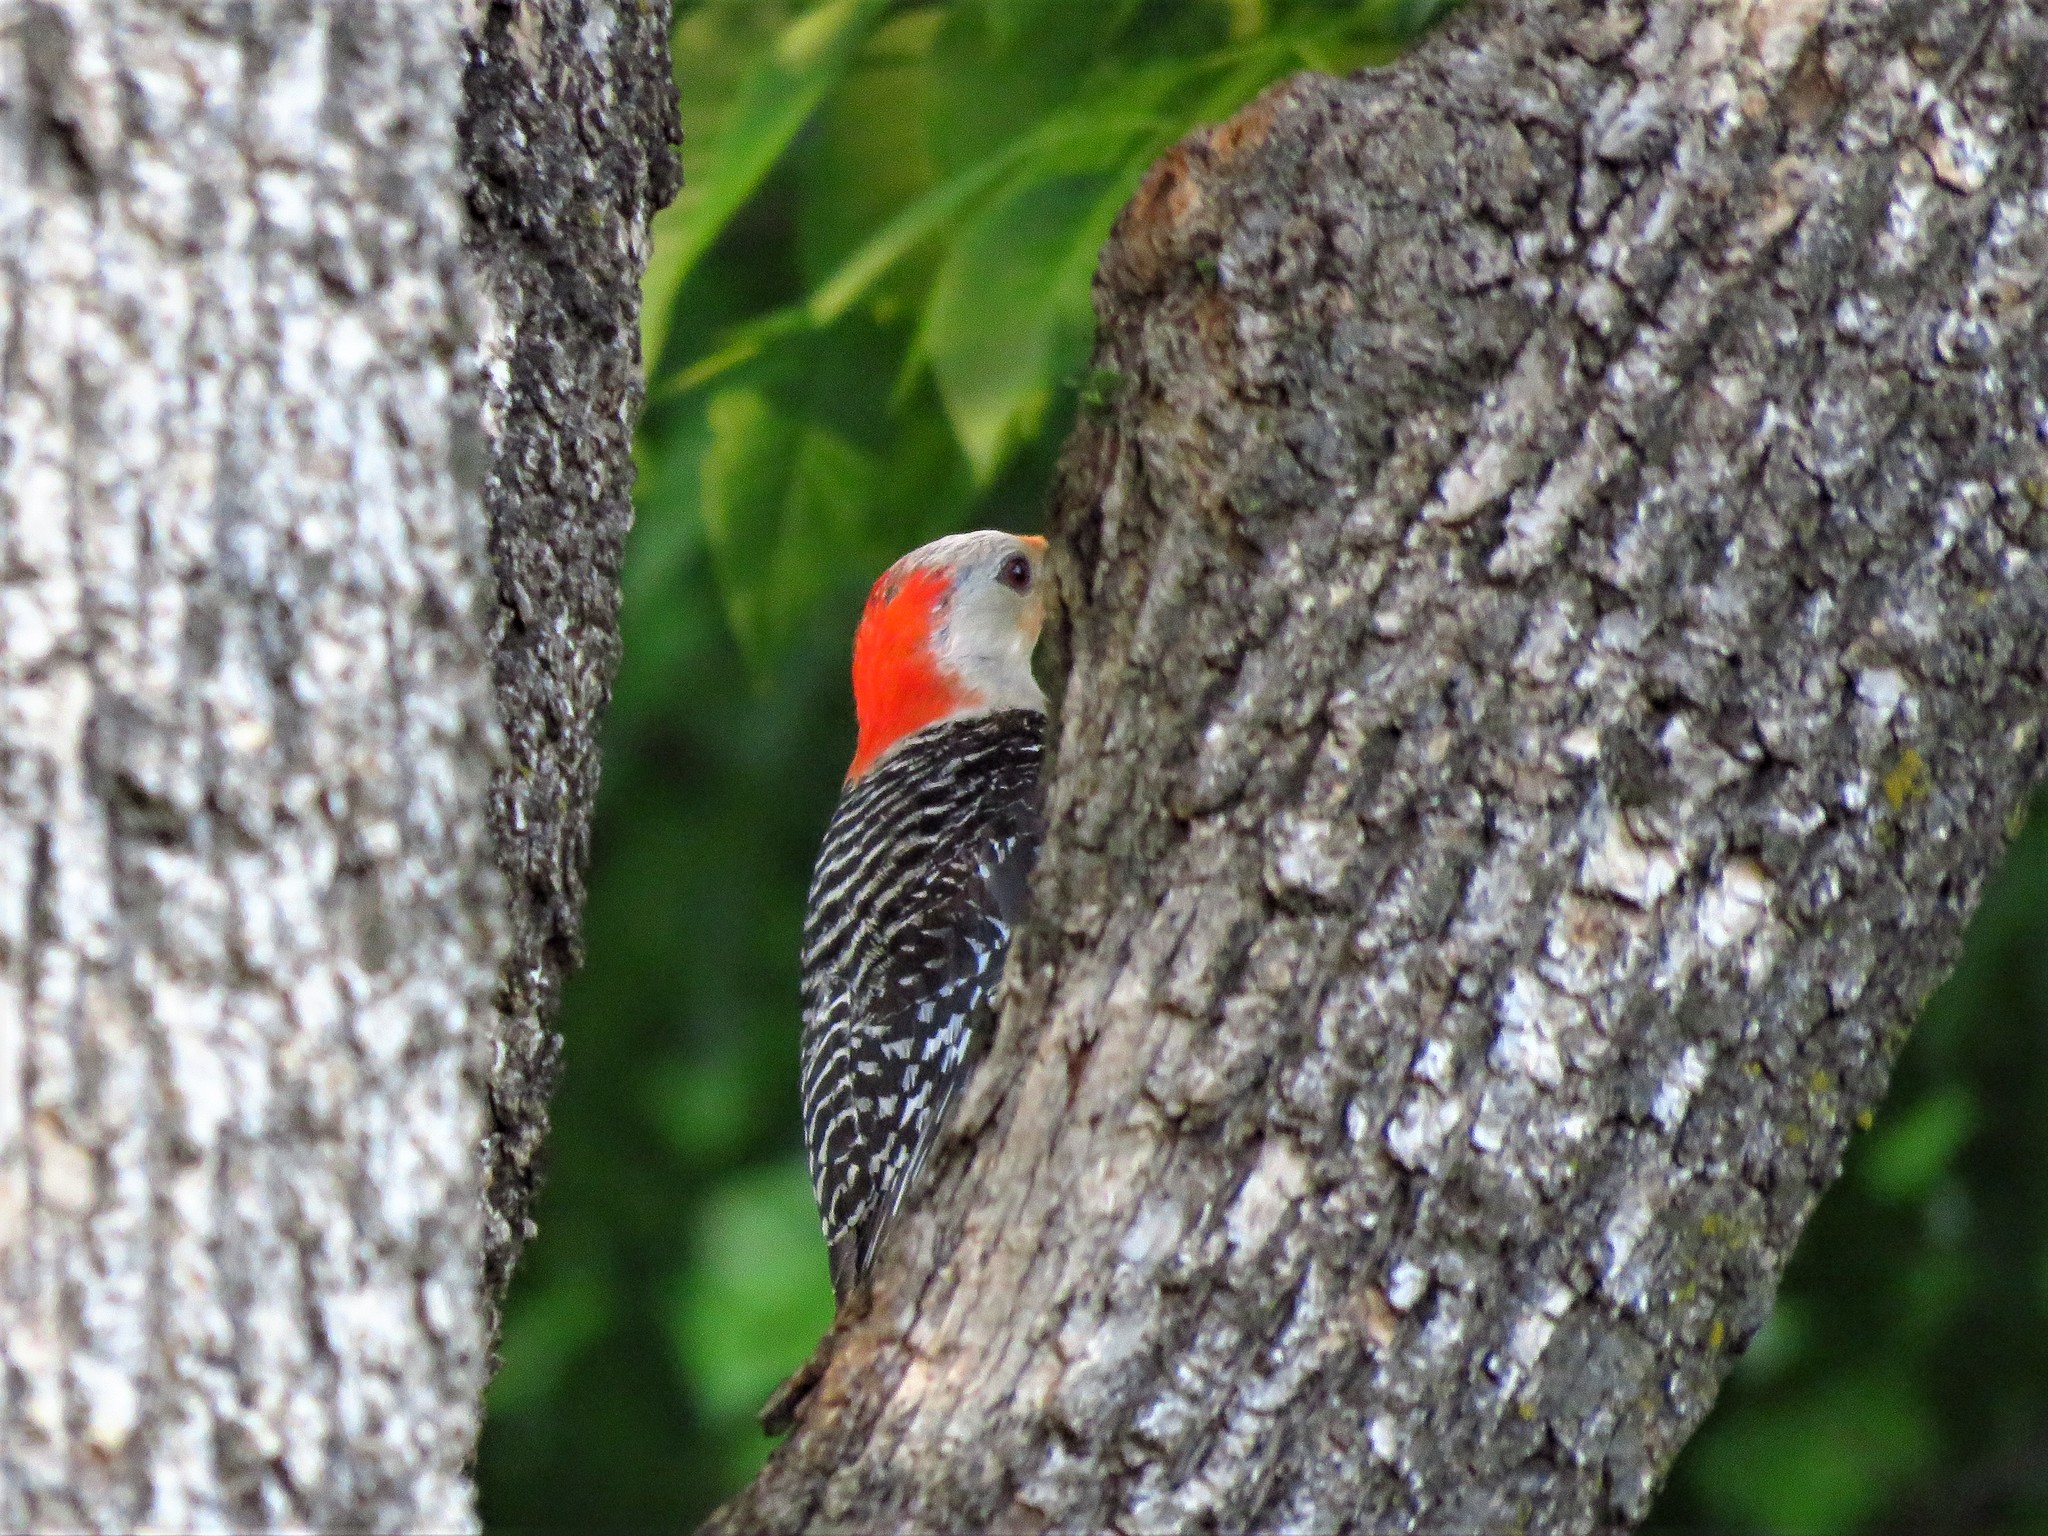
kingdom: Animalia
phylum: Chordata
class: Aves
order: Piciformes
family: Picidae
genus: Melanerpes
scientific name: Melanerpes carolinus
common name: Red-bellied woodpecker
